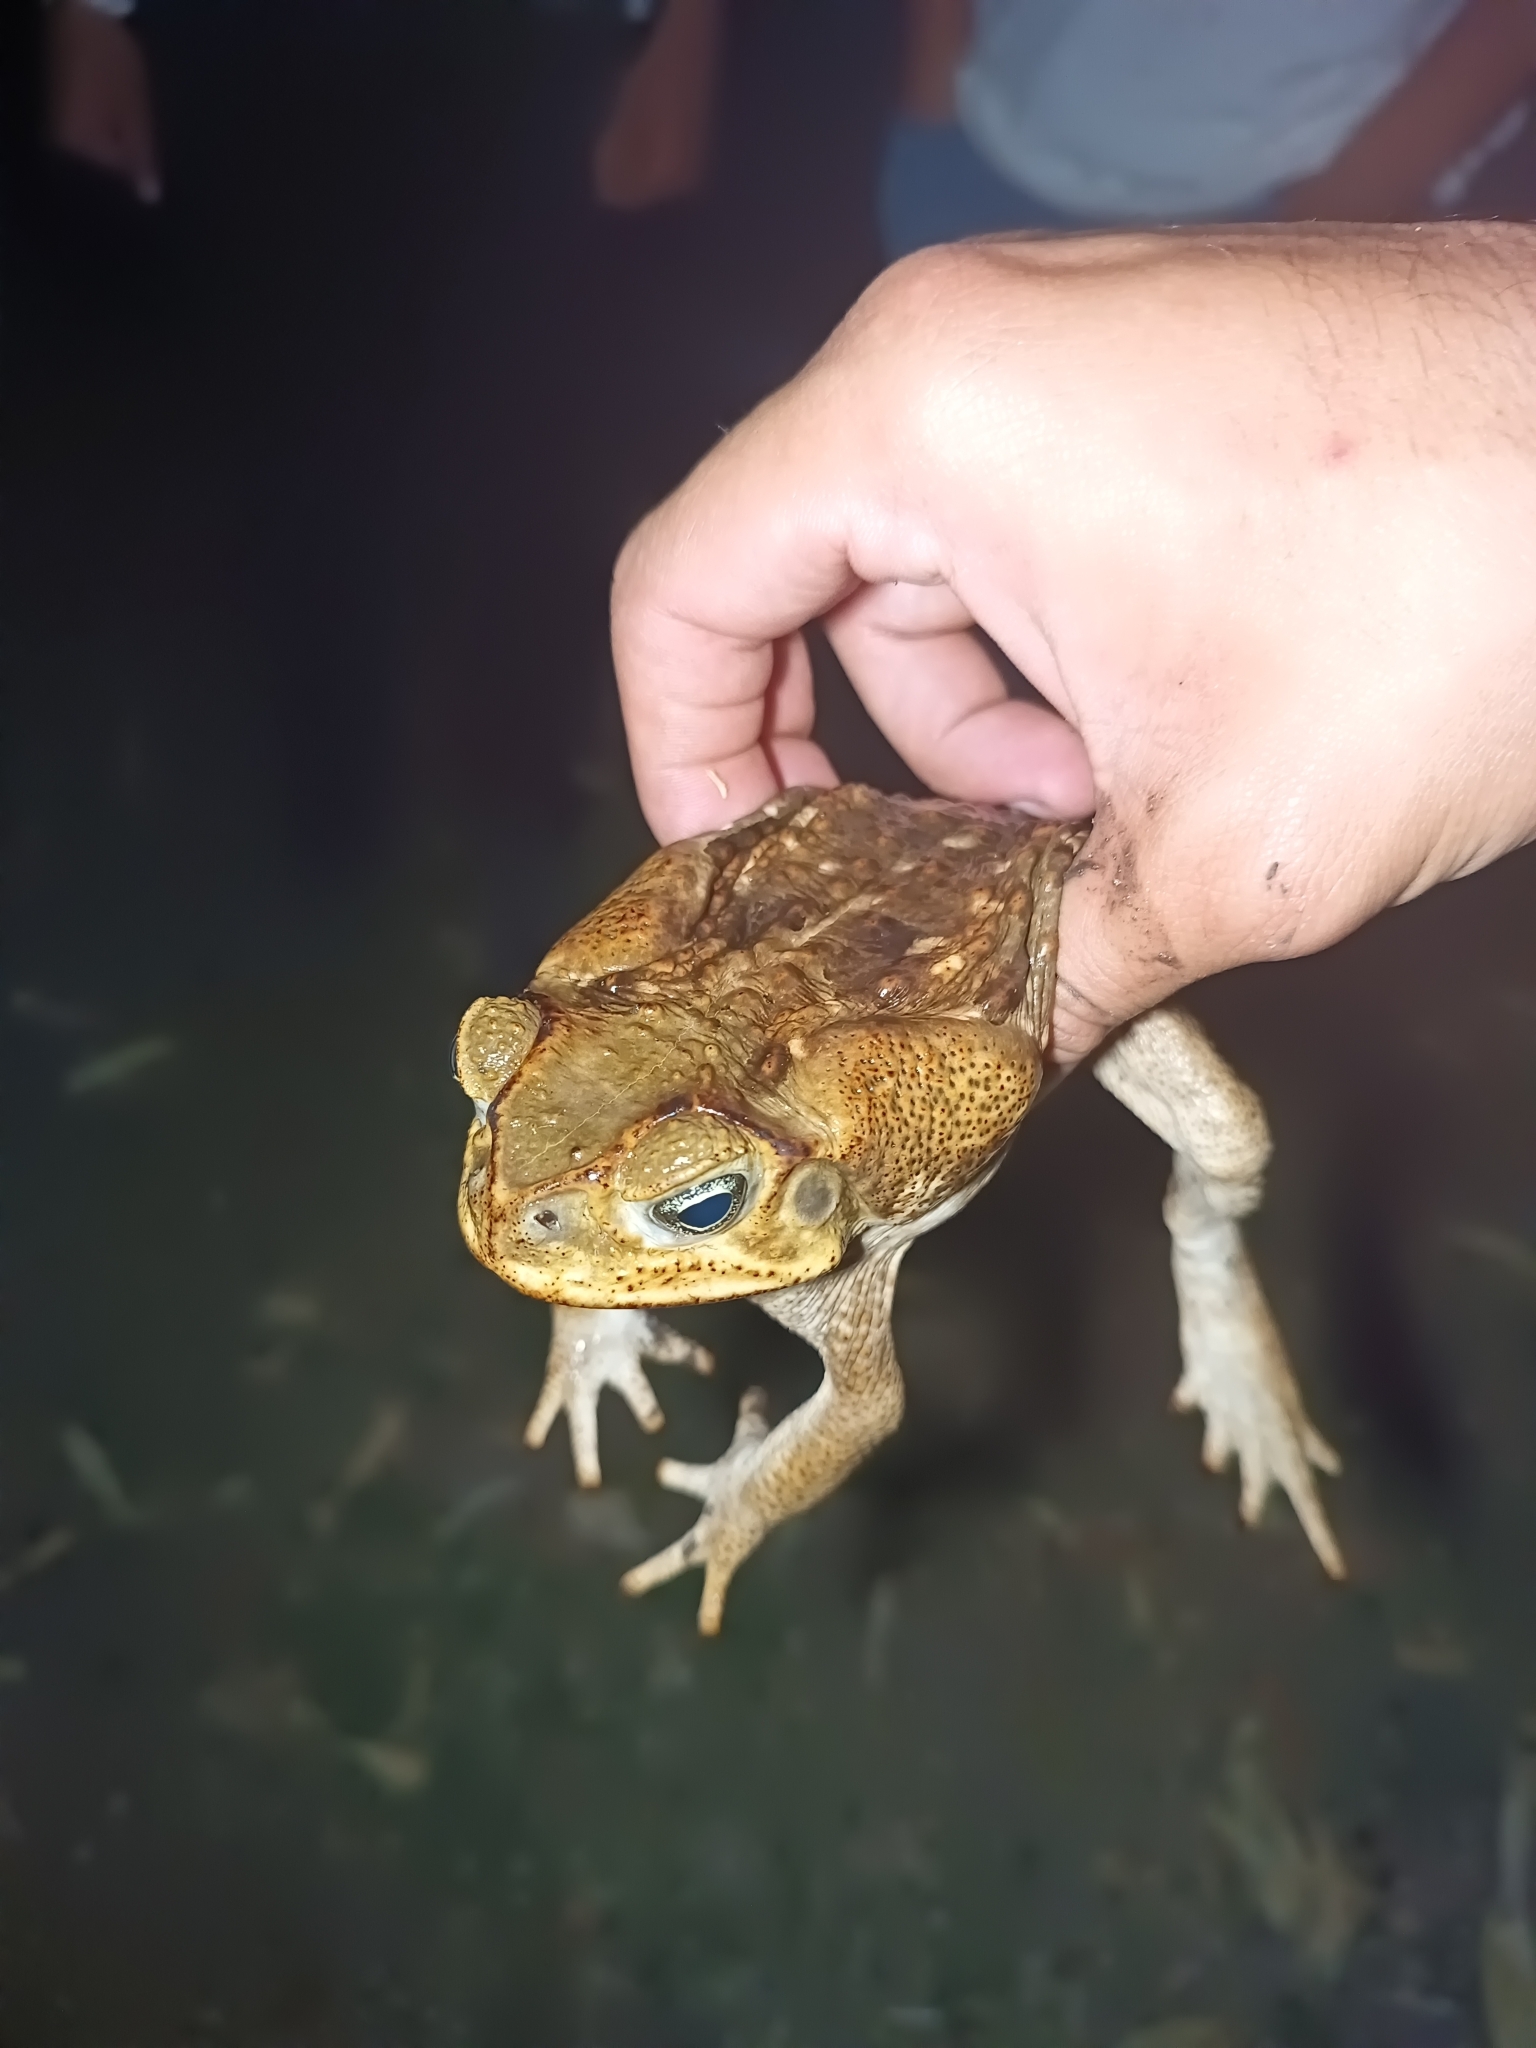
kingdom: Animalia
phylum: Chordata
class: Amphibia
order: Anura
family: Bufonidae
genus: Rhinella
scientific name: Rhinella horribilis
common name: Mesoamerican cane toad
